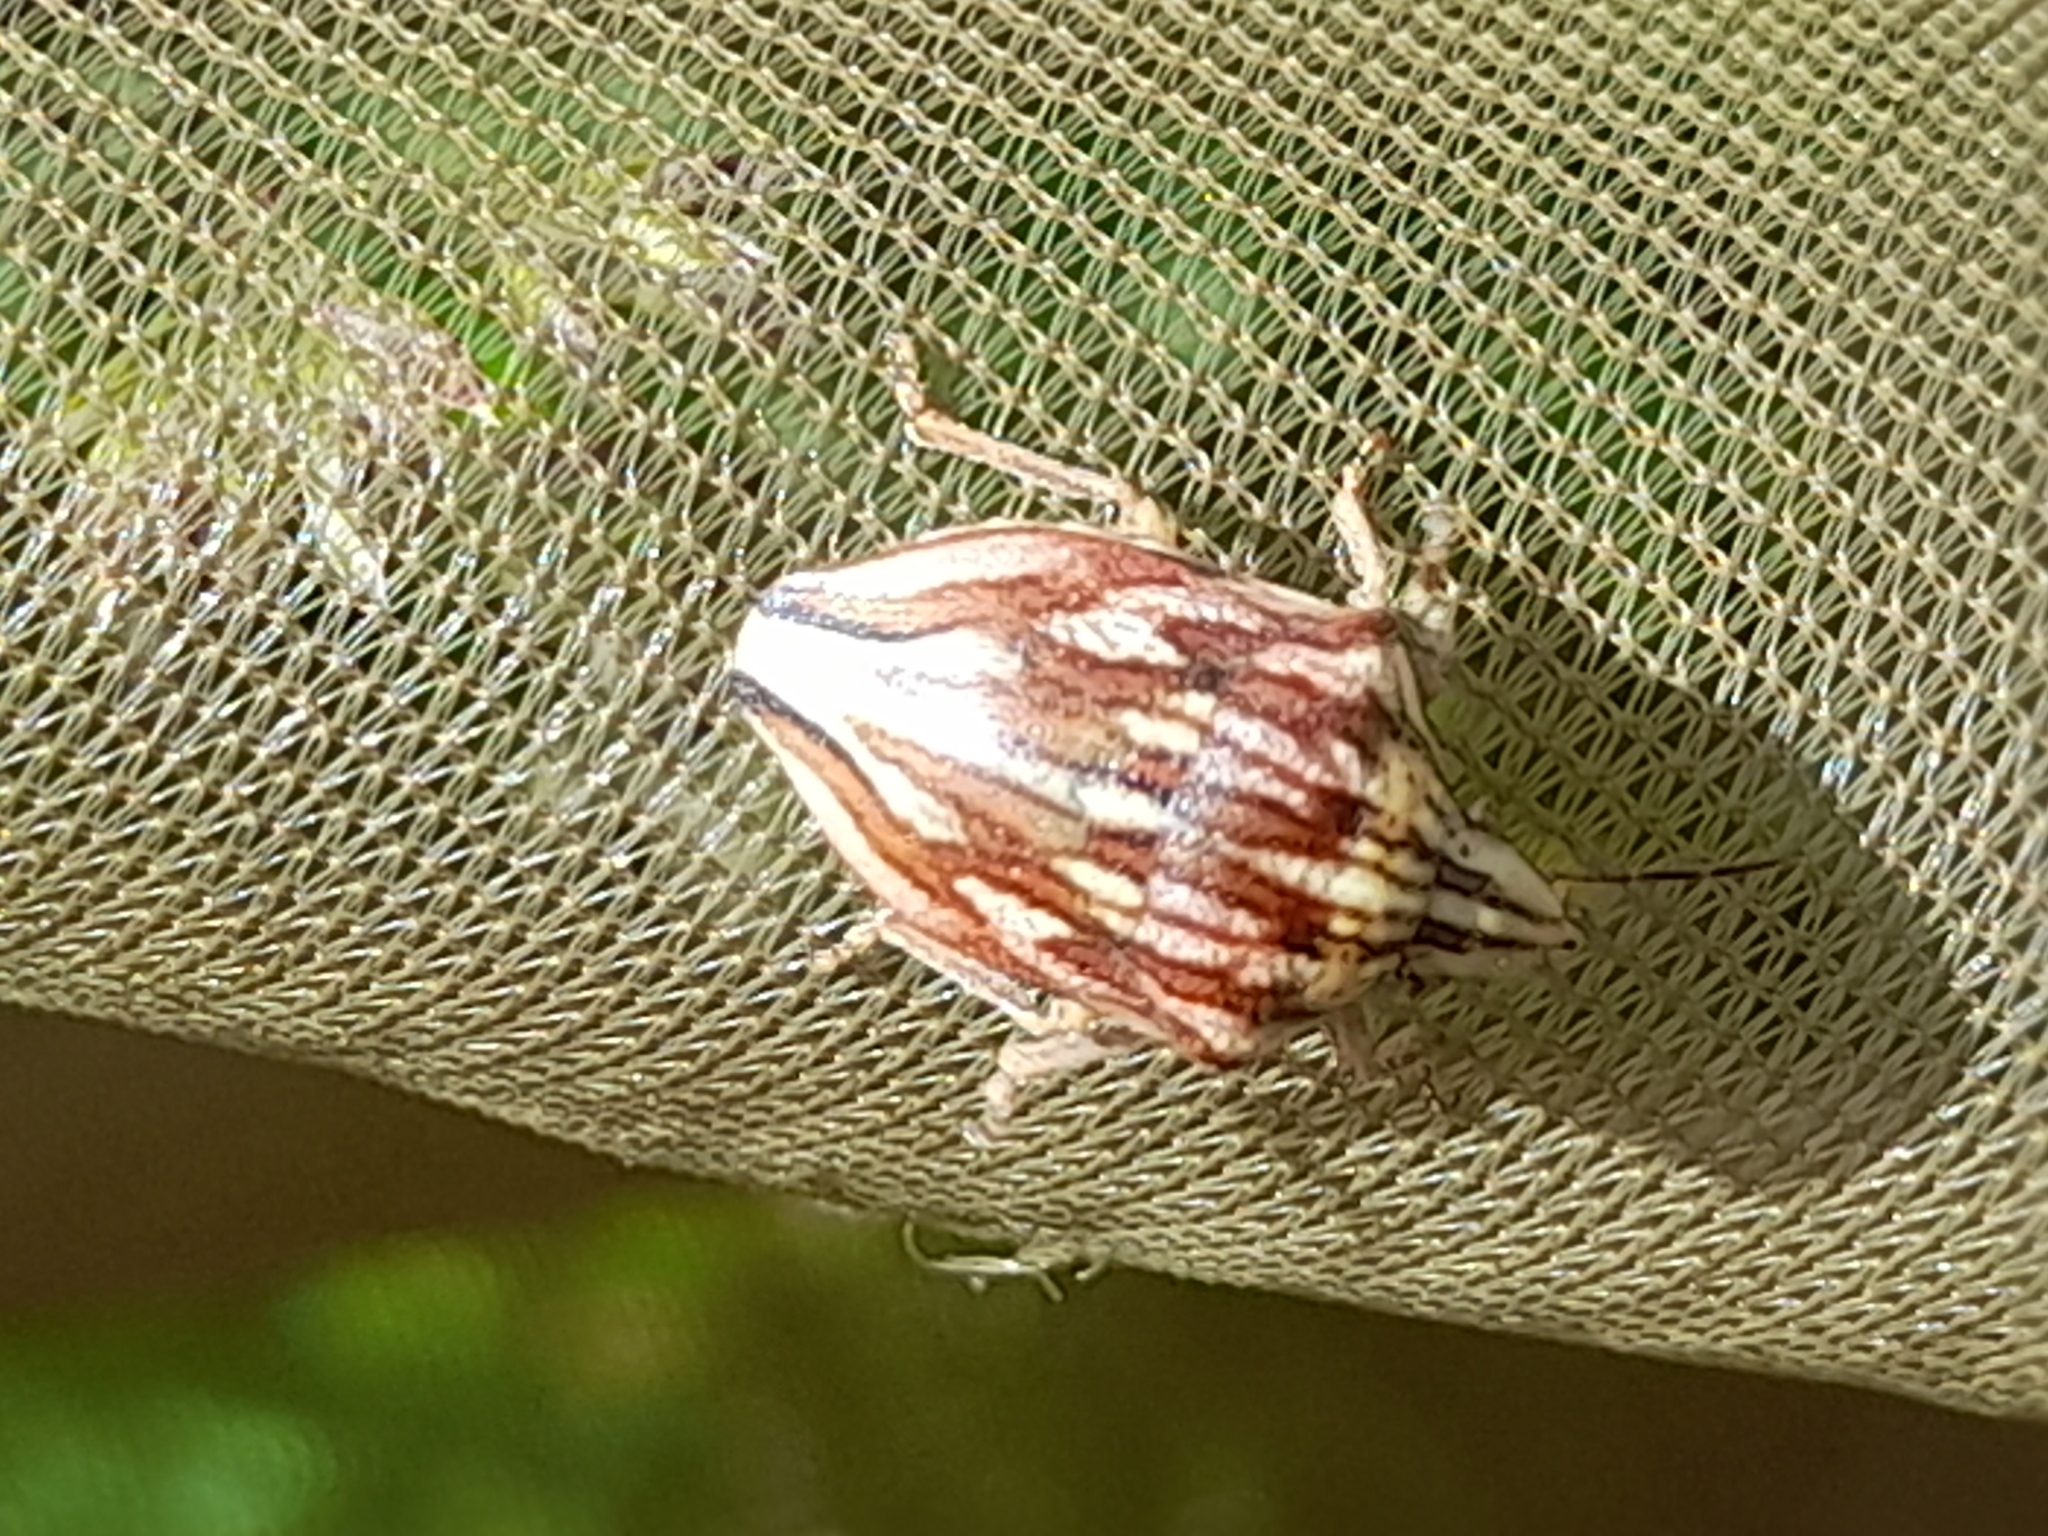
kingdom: Animalia
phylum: Arthropoda
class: Insecta
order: Hemiptera
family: Scutelleridae
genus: Odontotarsus
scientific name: Odontotarsus purpureolineatus
